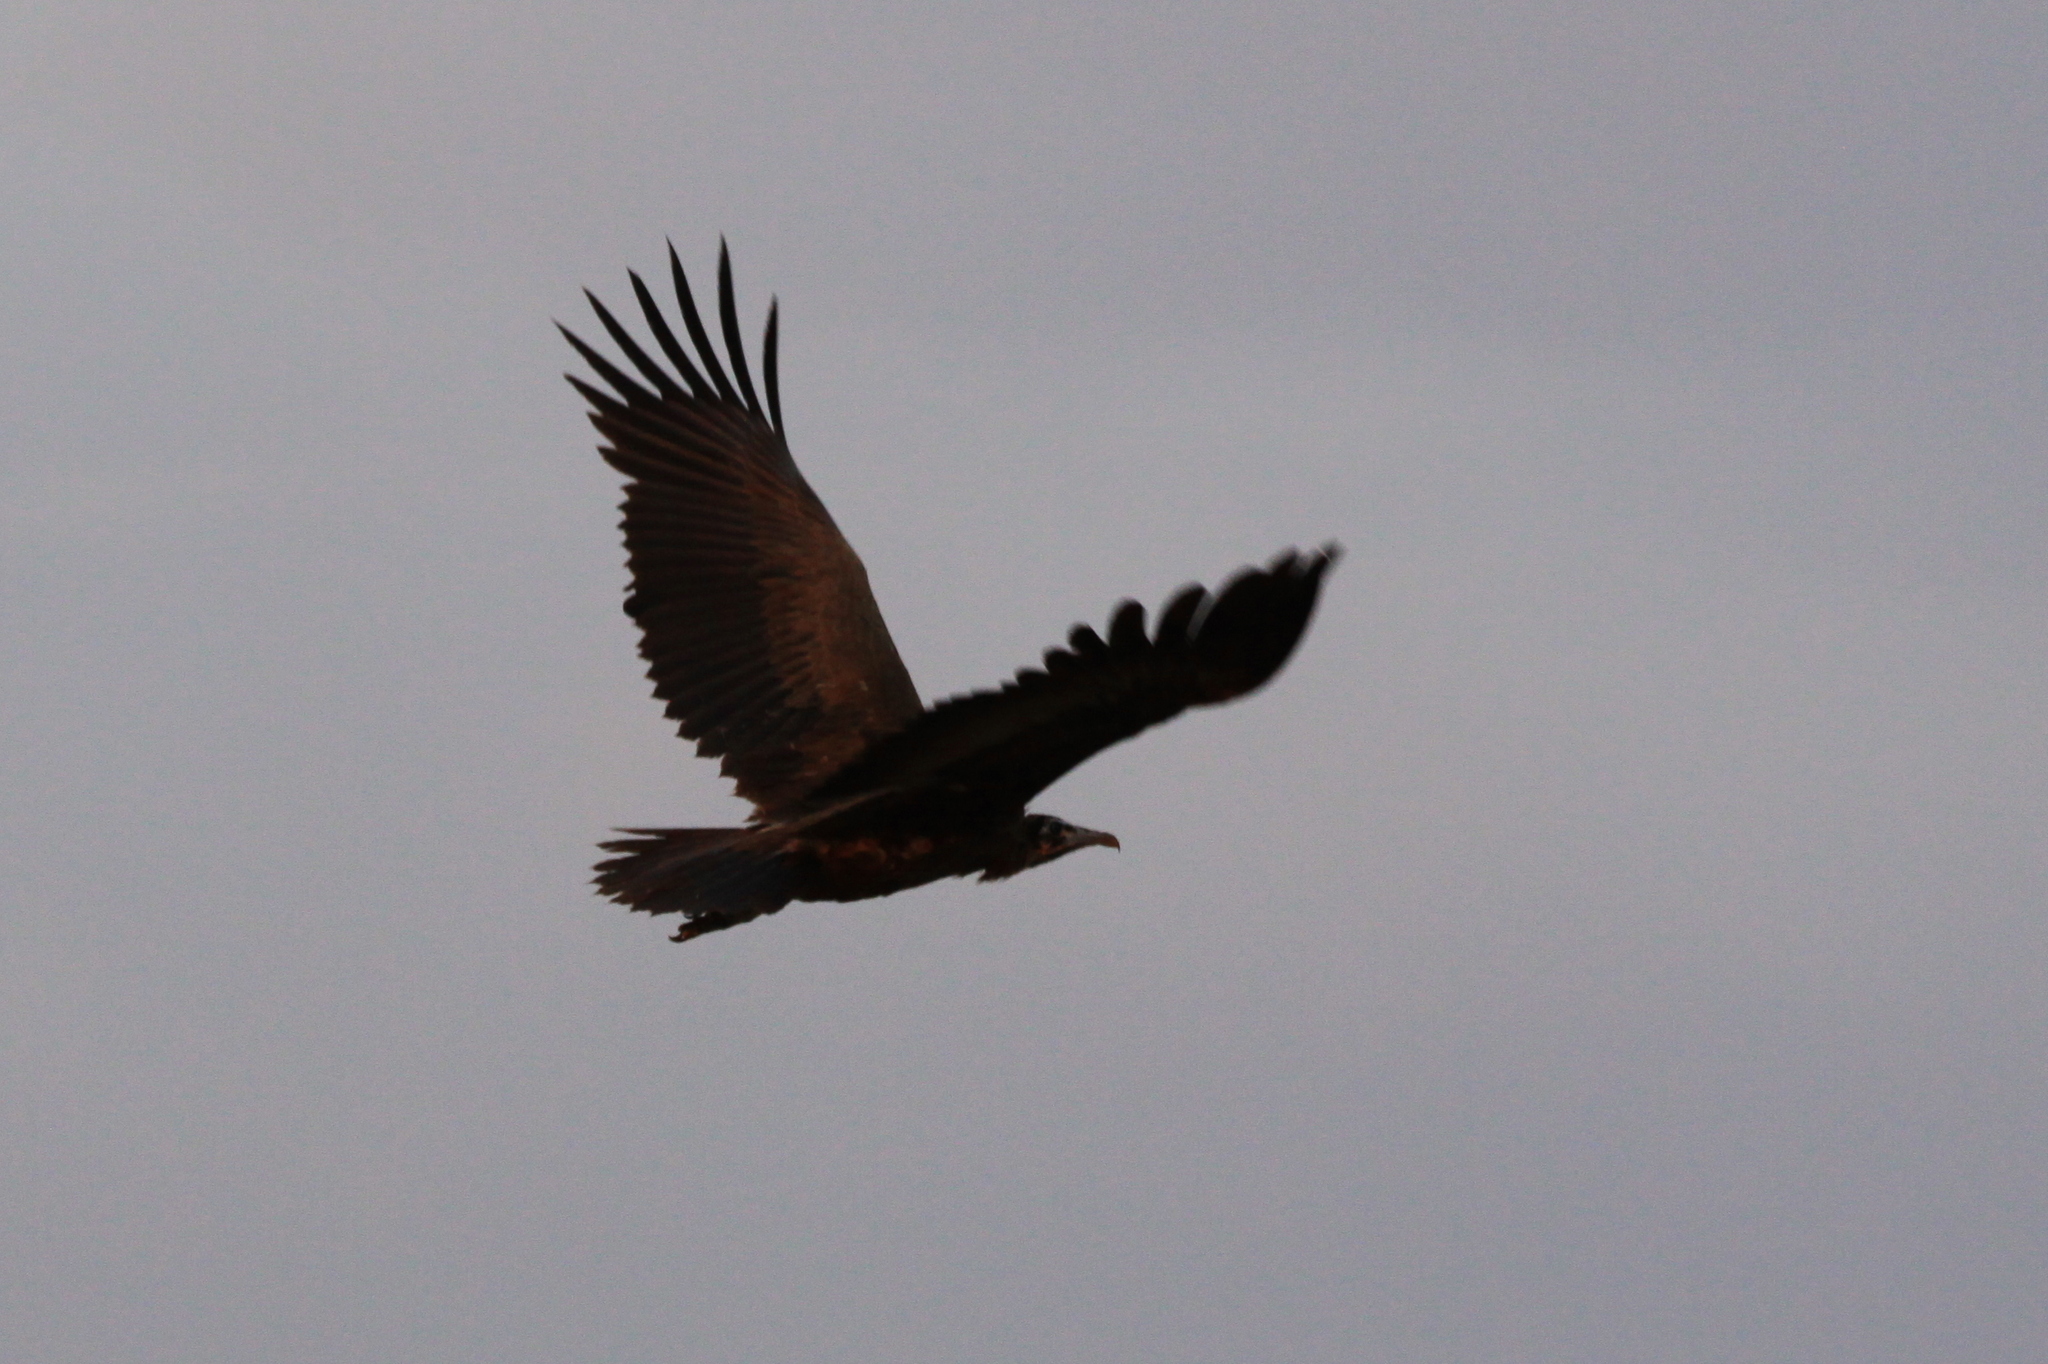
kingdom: Animalia
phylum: Chordata
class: Aves
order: Accipitriformes
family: Accipitridae
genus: Necrosyrtes
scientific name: Necrosyrtes monachus
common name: Hooded vulture
